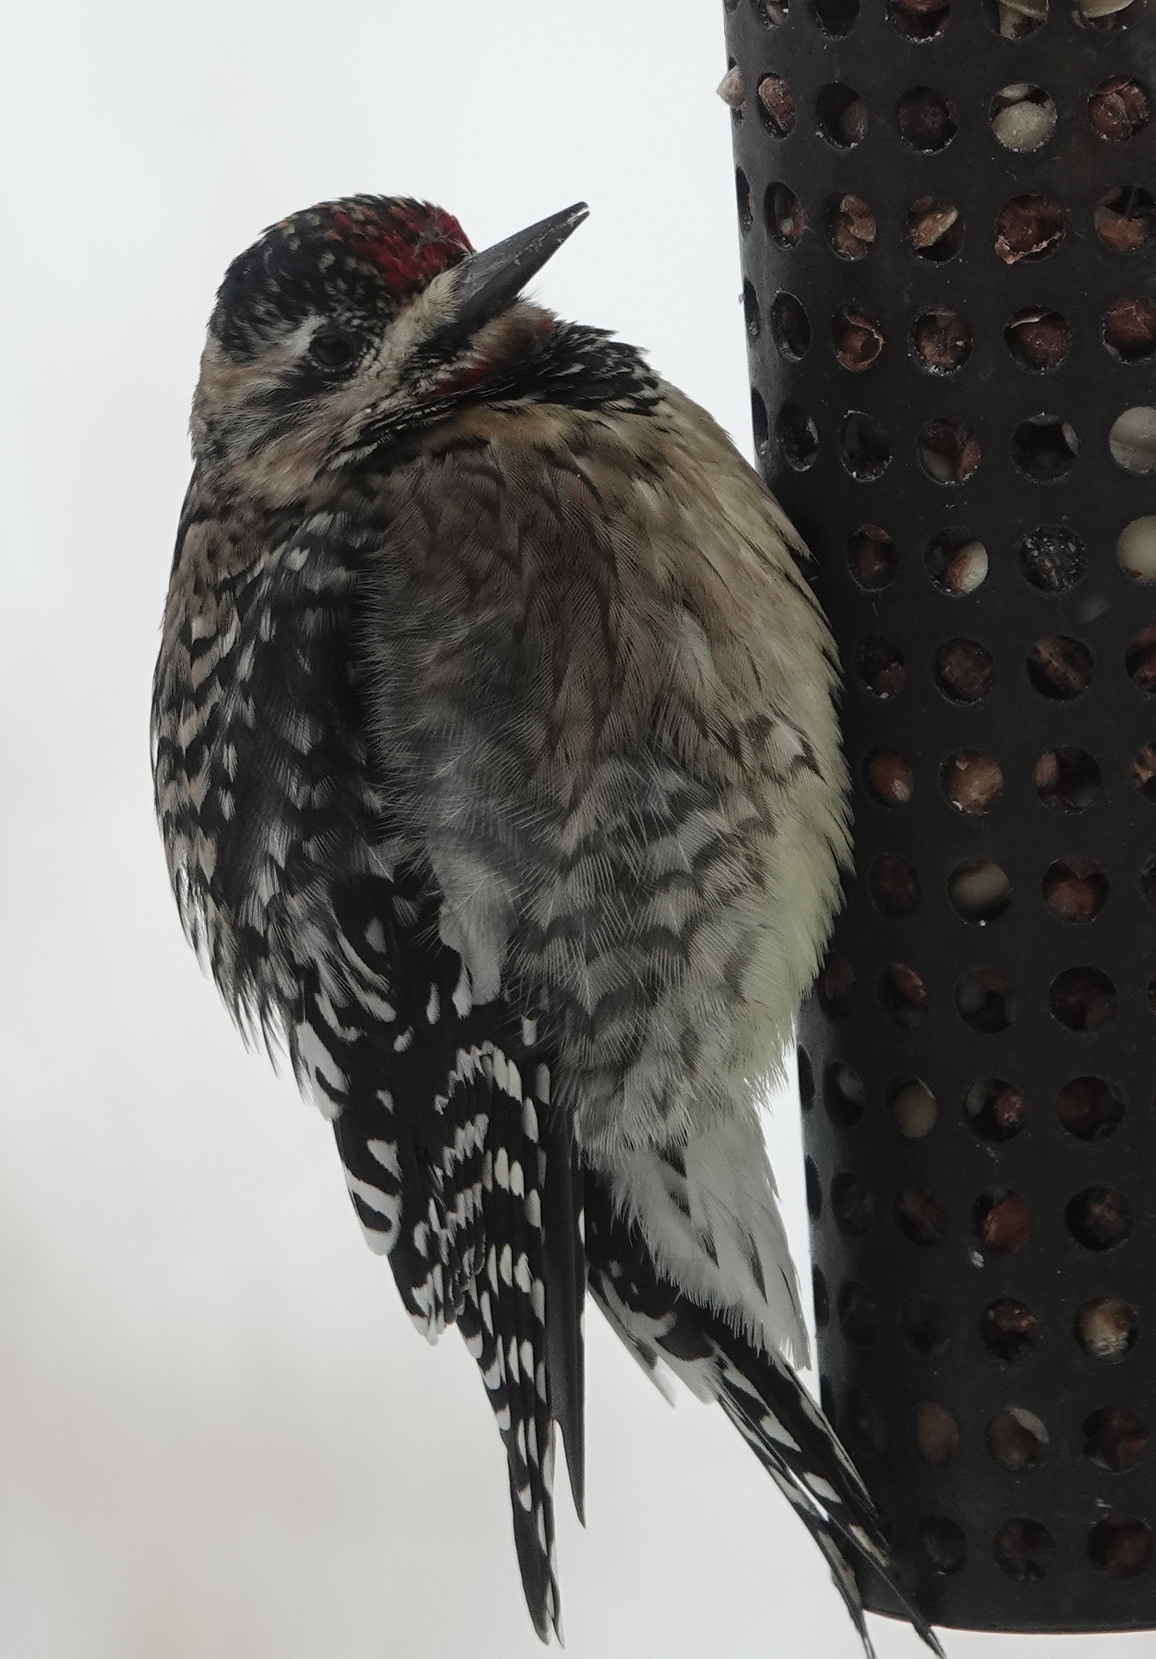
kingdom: Animalia
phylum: Chordata
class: Aves
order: Piciformes
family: Picidae
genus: Sphyrapicus
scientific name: Sphyrapicus varius
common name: Yellow-bellied sapsucker
